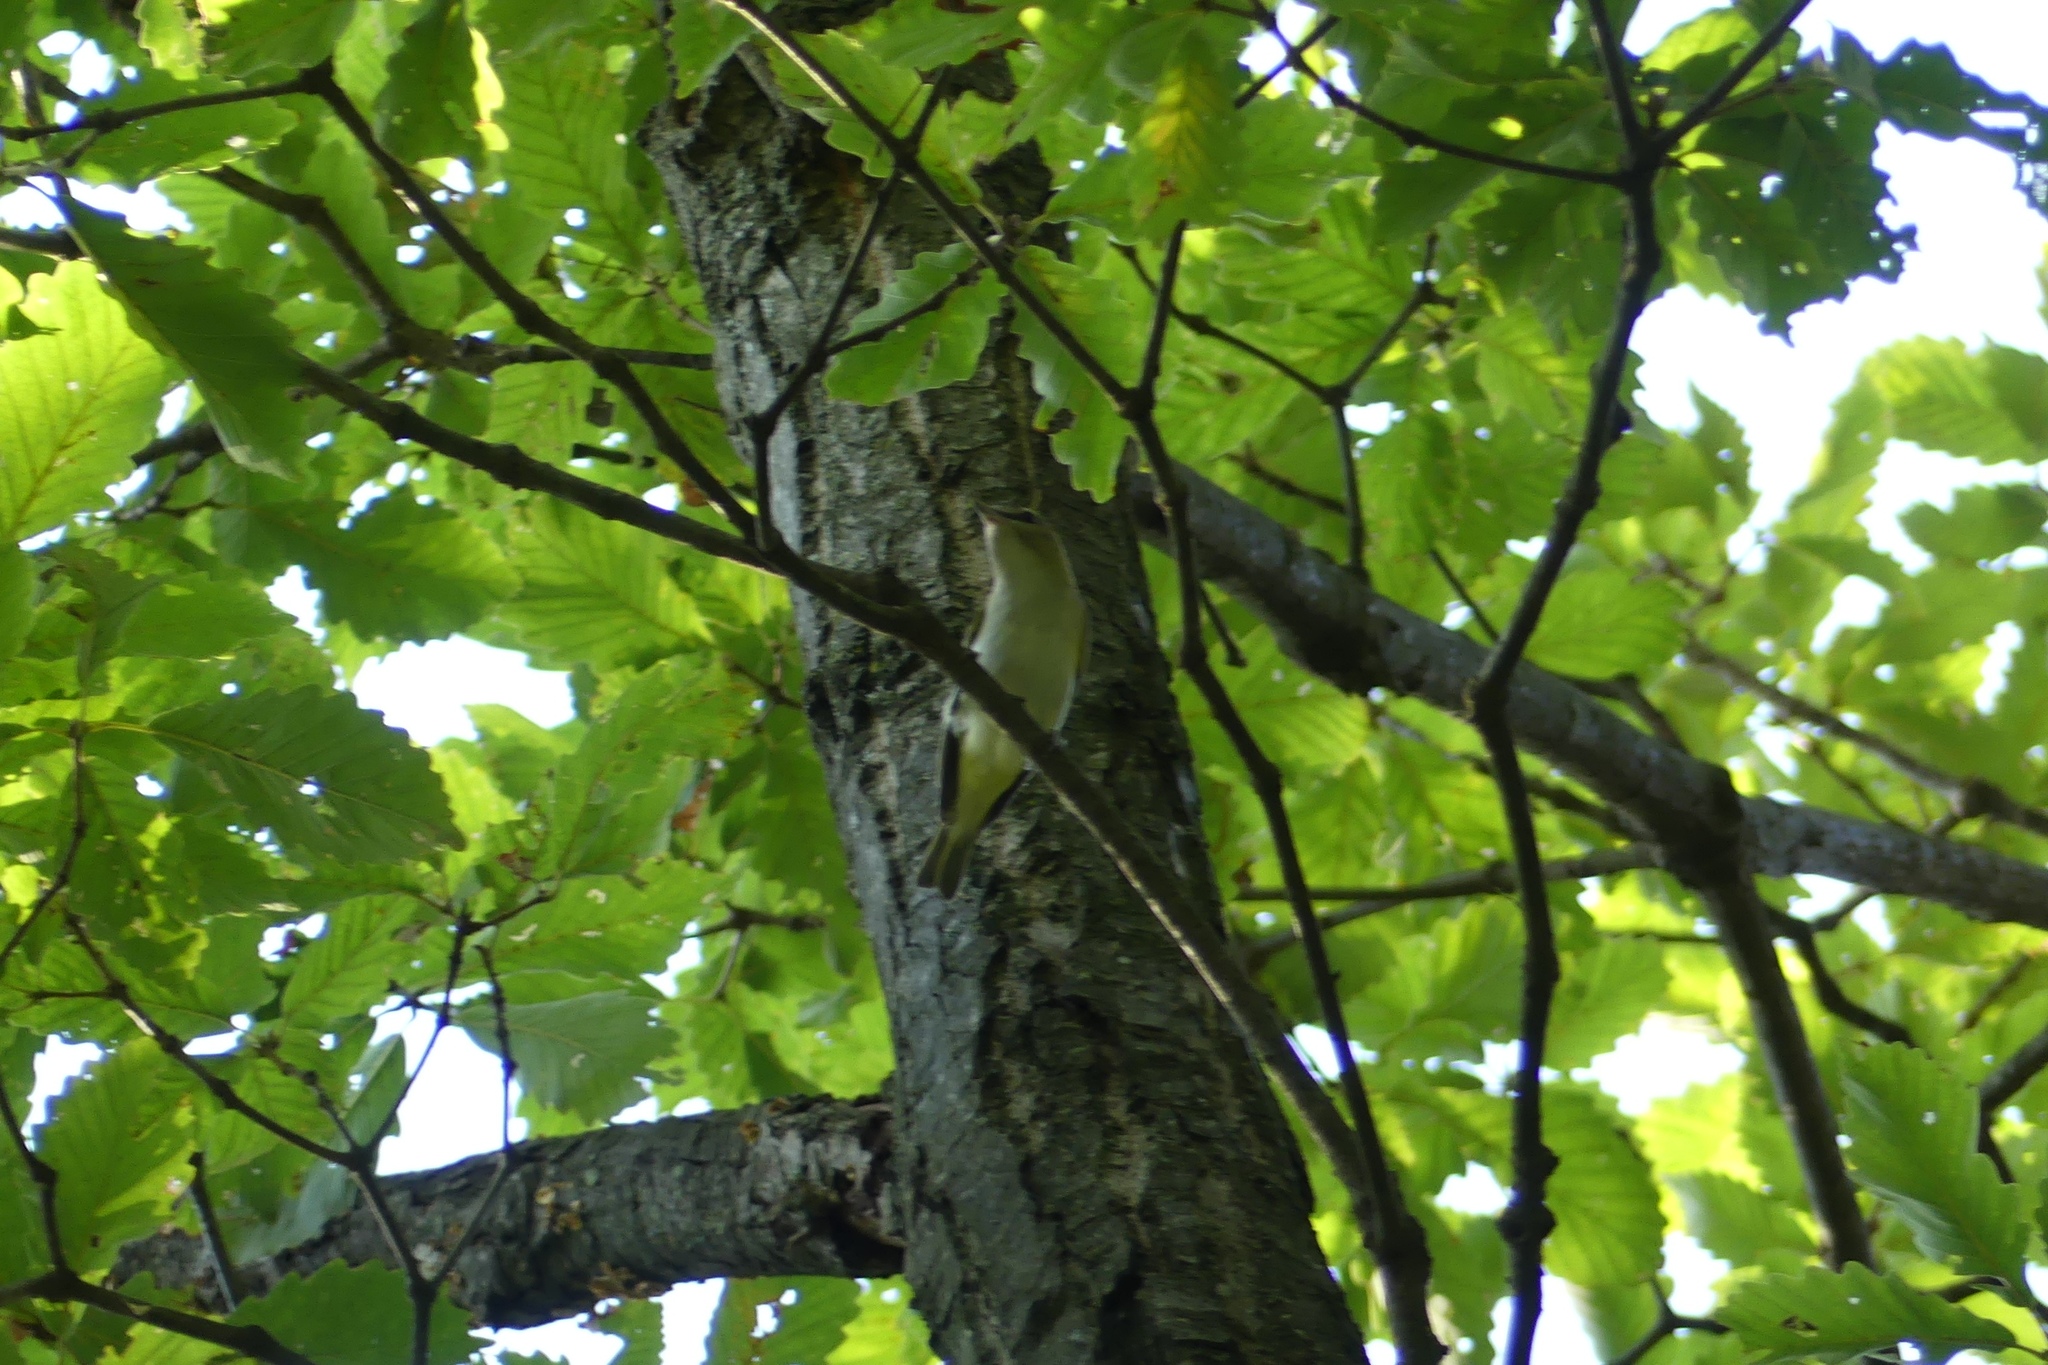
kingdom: Animalia
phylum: Chordata
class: Aves
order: Passeriformes
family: Vireonidae
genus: Vireo
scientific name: Vireo olivaceus
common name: Red-eyed vireo
